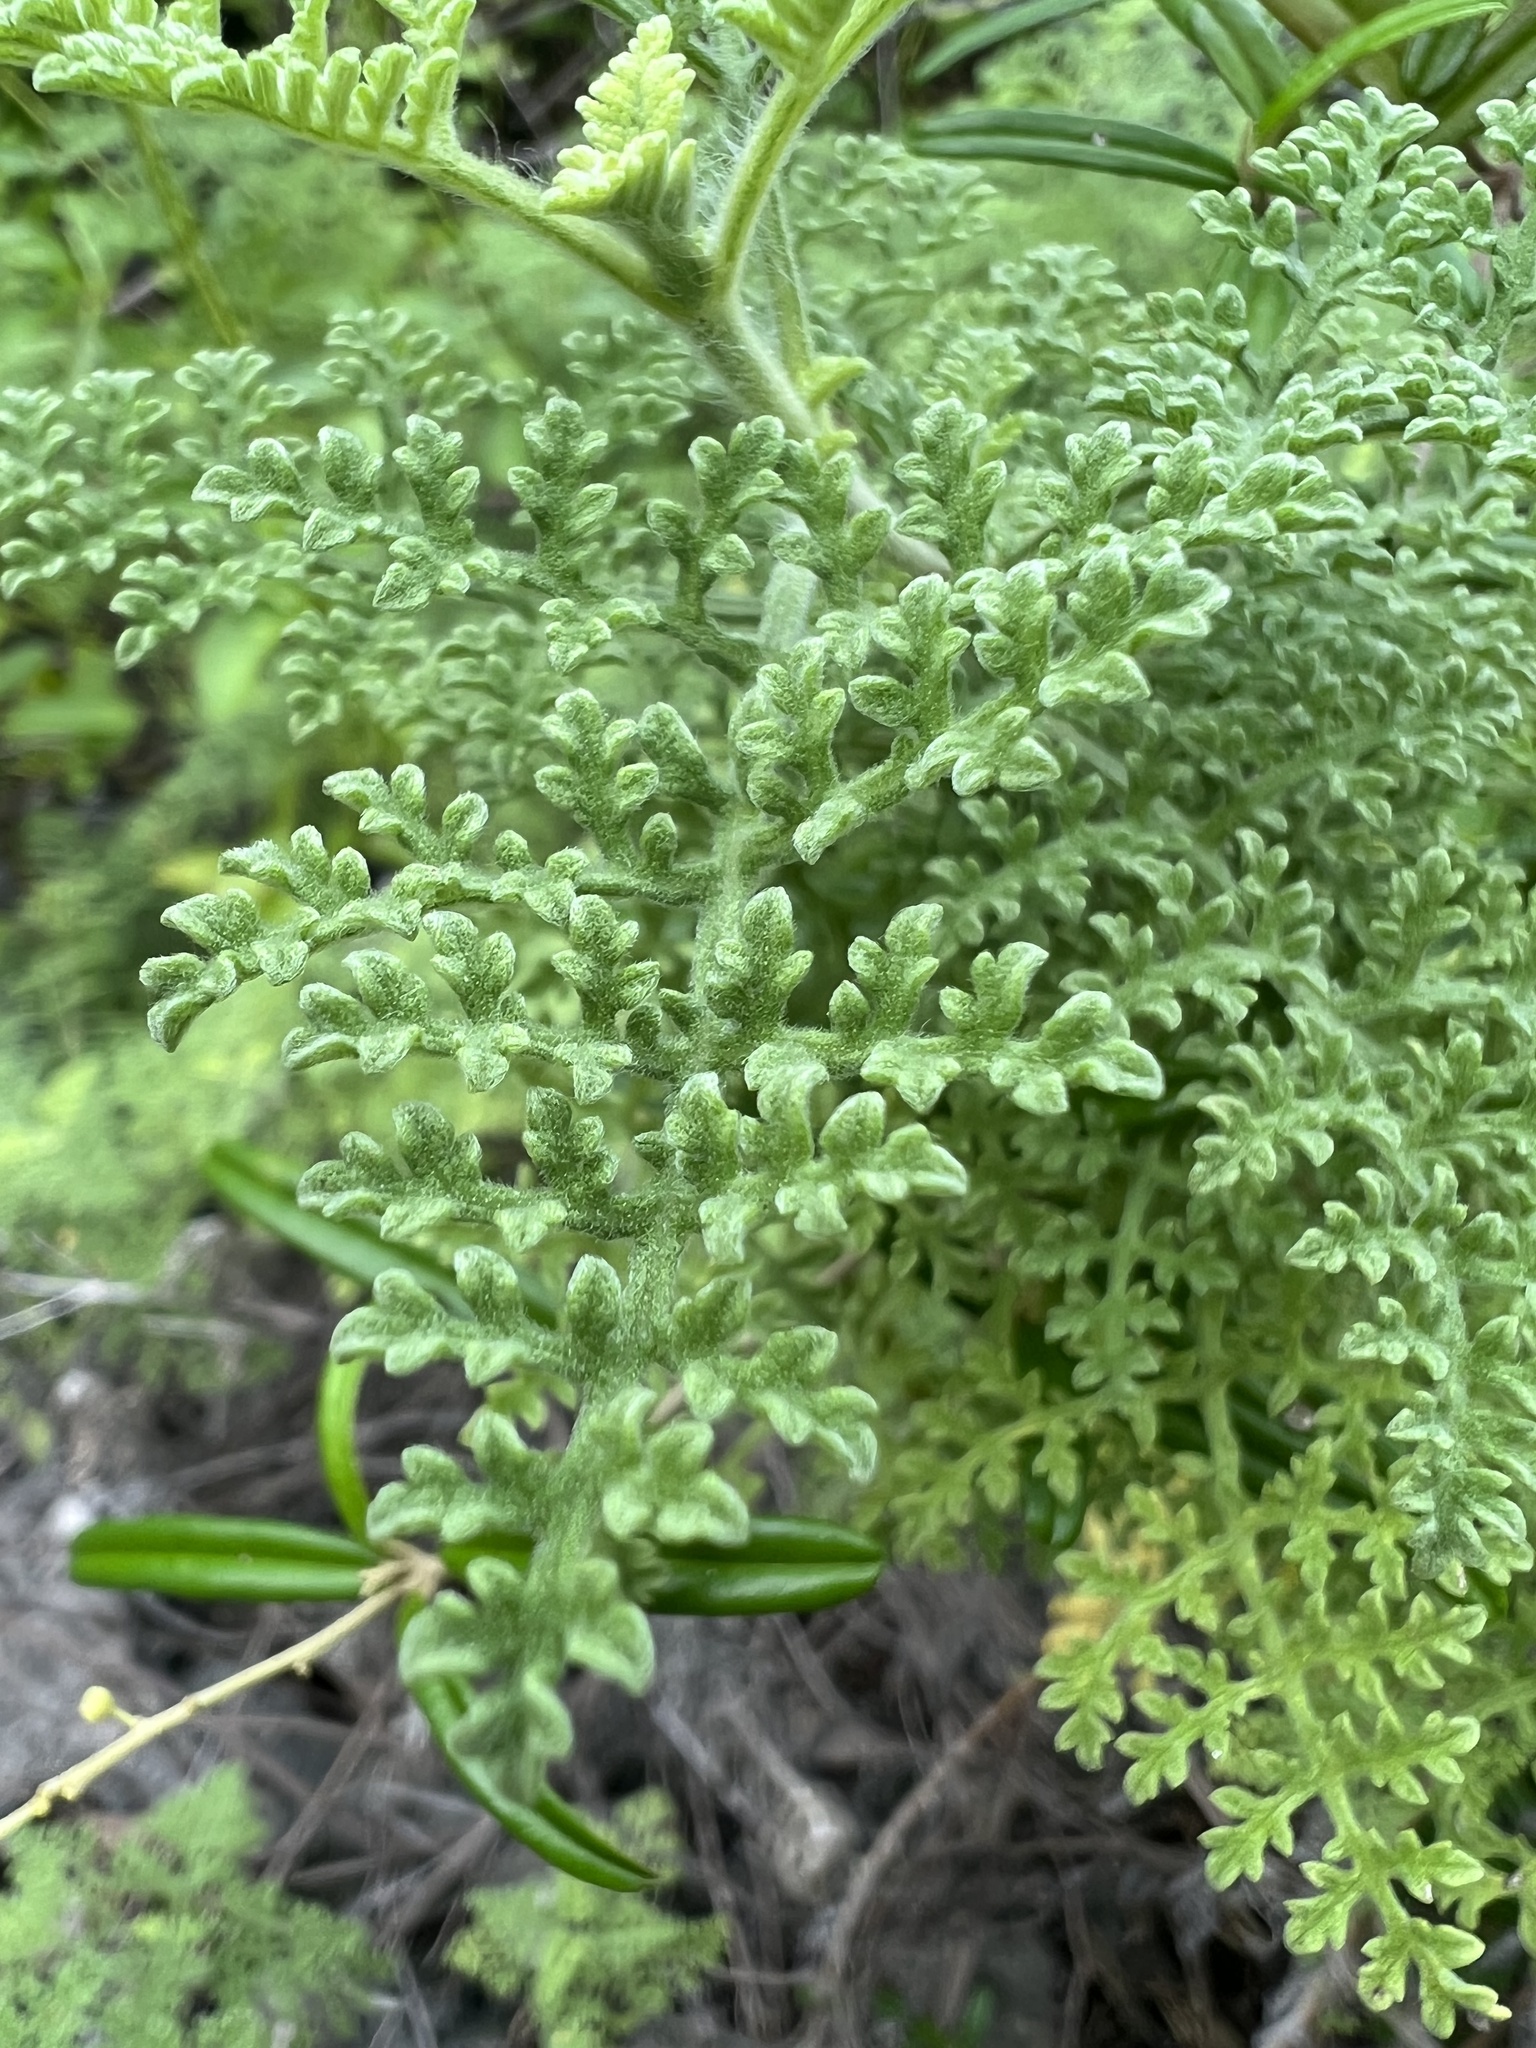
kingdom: Plantae
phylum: Tracheophyta
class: Magnoliopsida
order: Asterales
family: Asteraceae
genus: Ambrosia
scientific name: Ambrosia hispida
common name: Coastal ragweed
